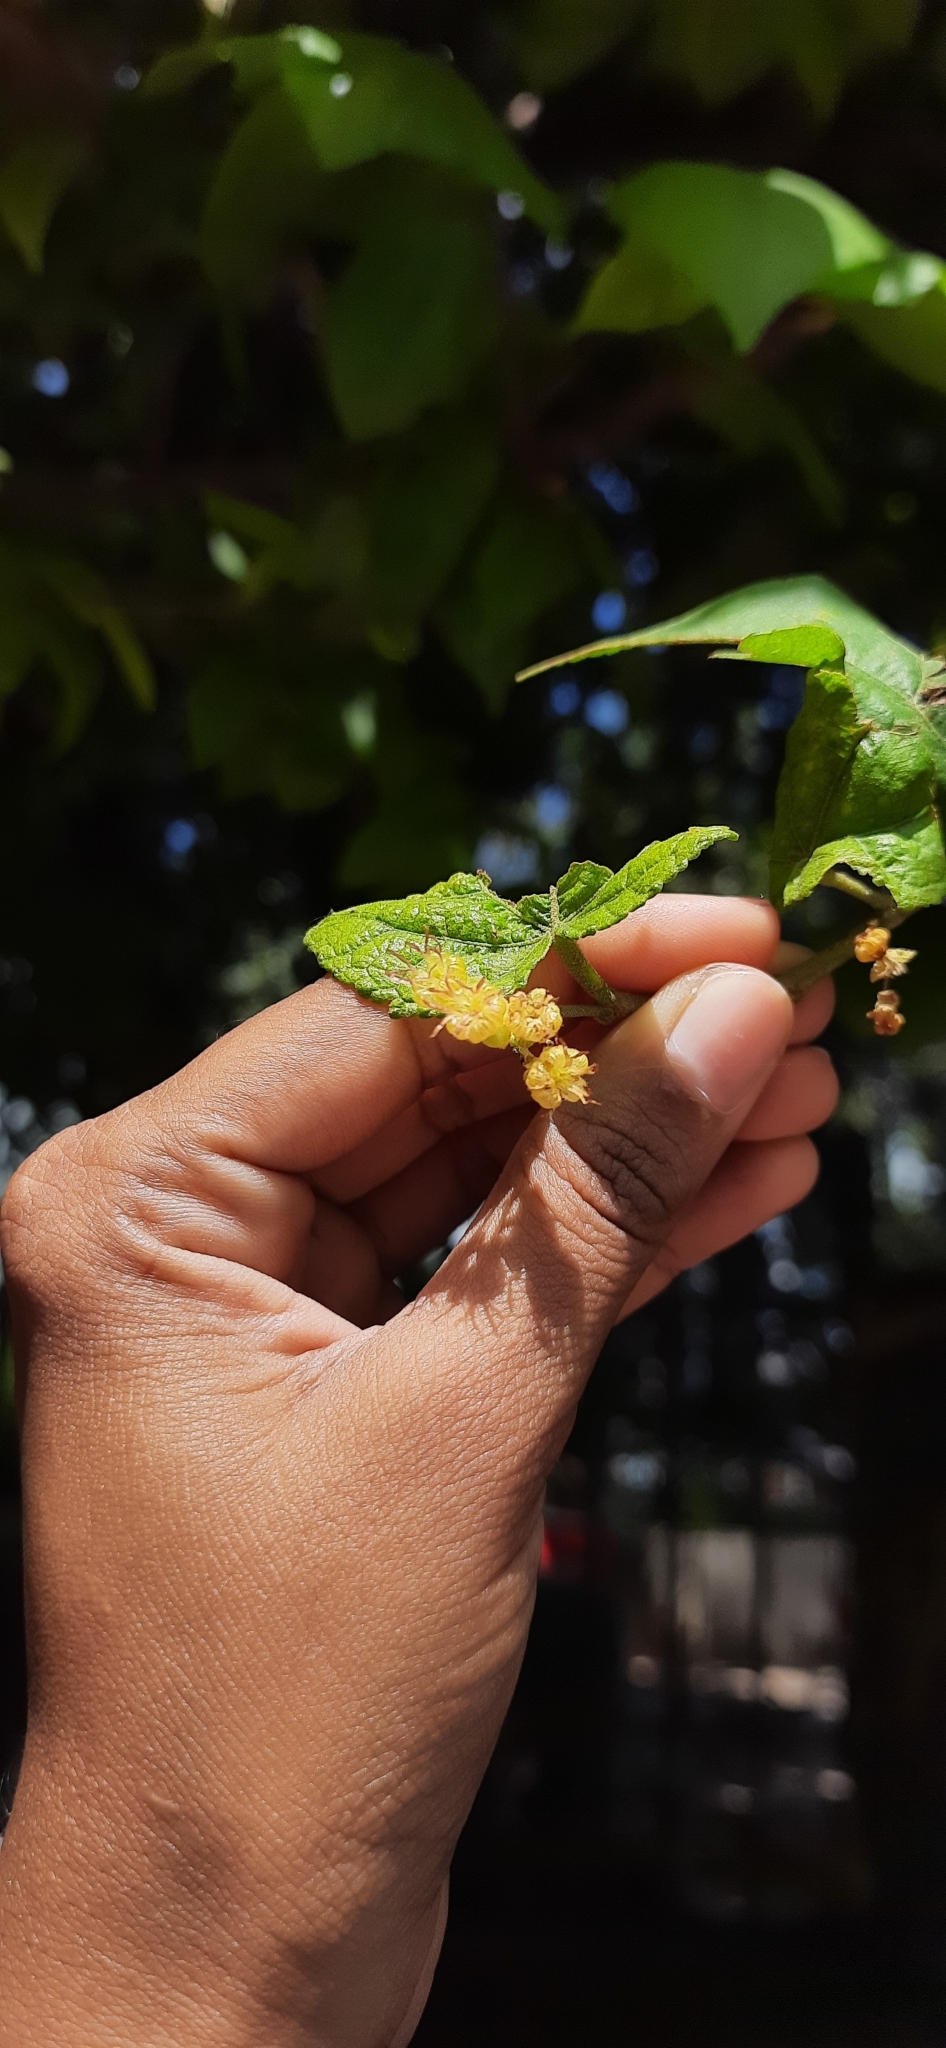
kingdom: Plantae
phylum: Tracheophyta
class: Magnoliopsida
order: Malvales
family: Malvaceae
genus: Guazuma
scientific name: Guazuma ulmifolia
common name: Bastard-cedar
